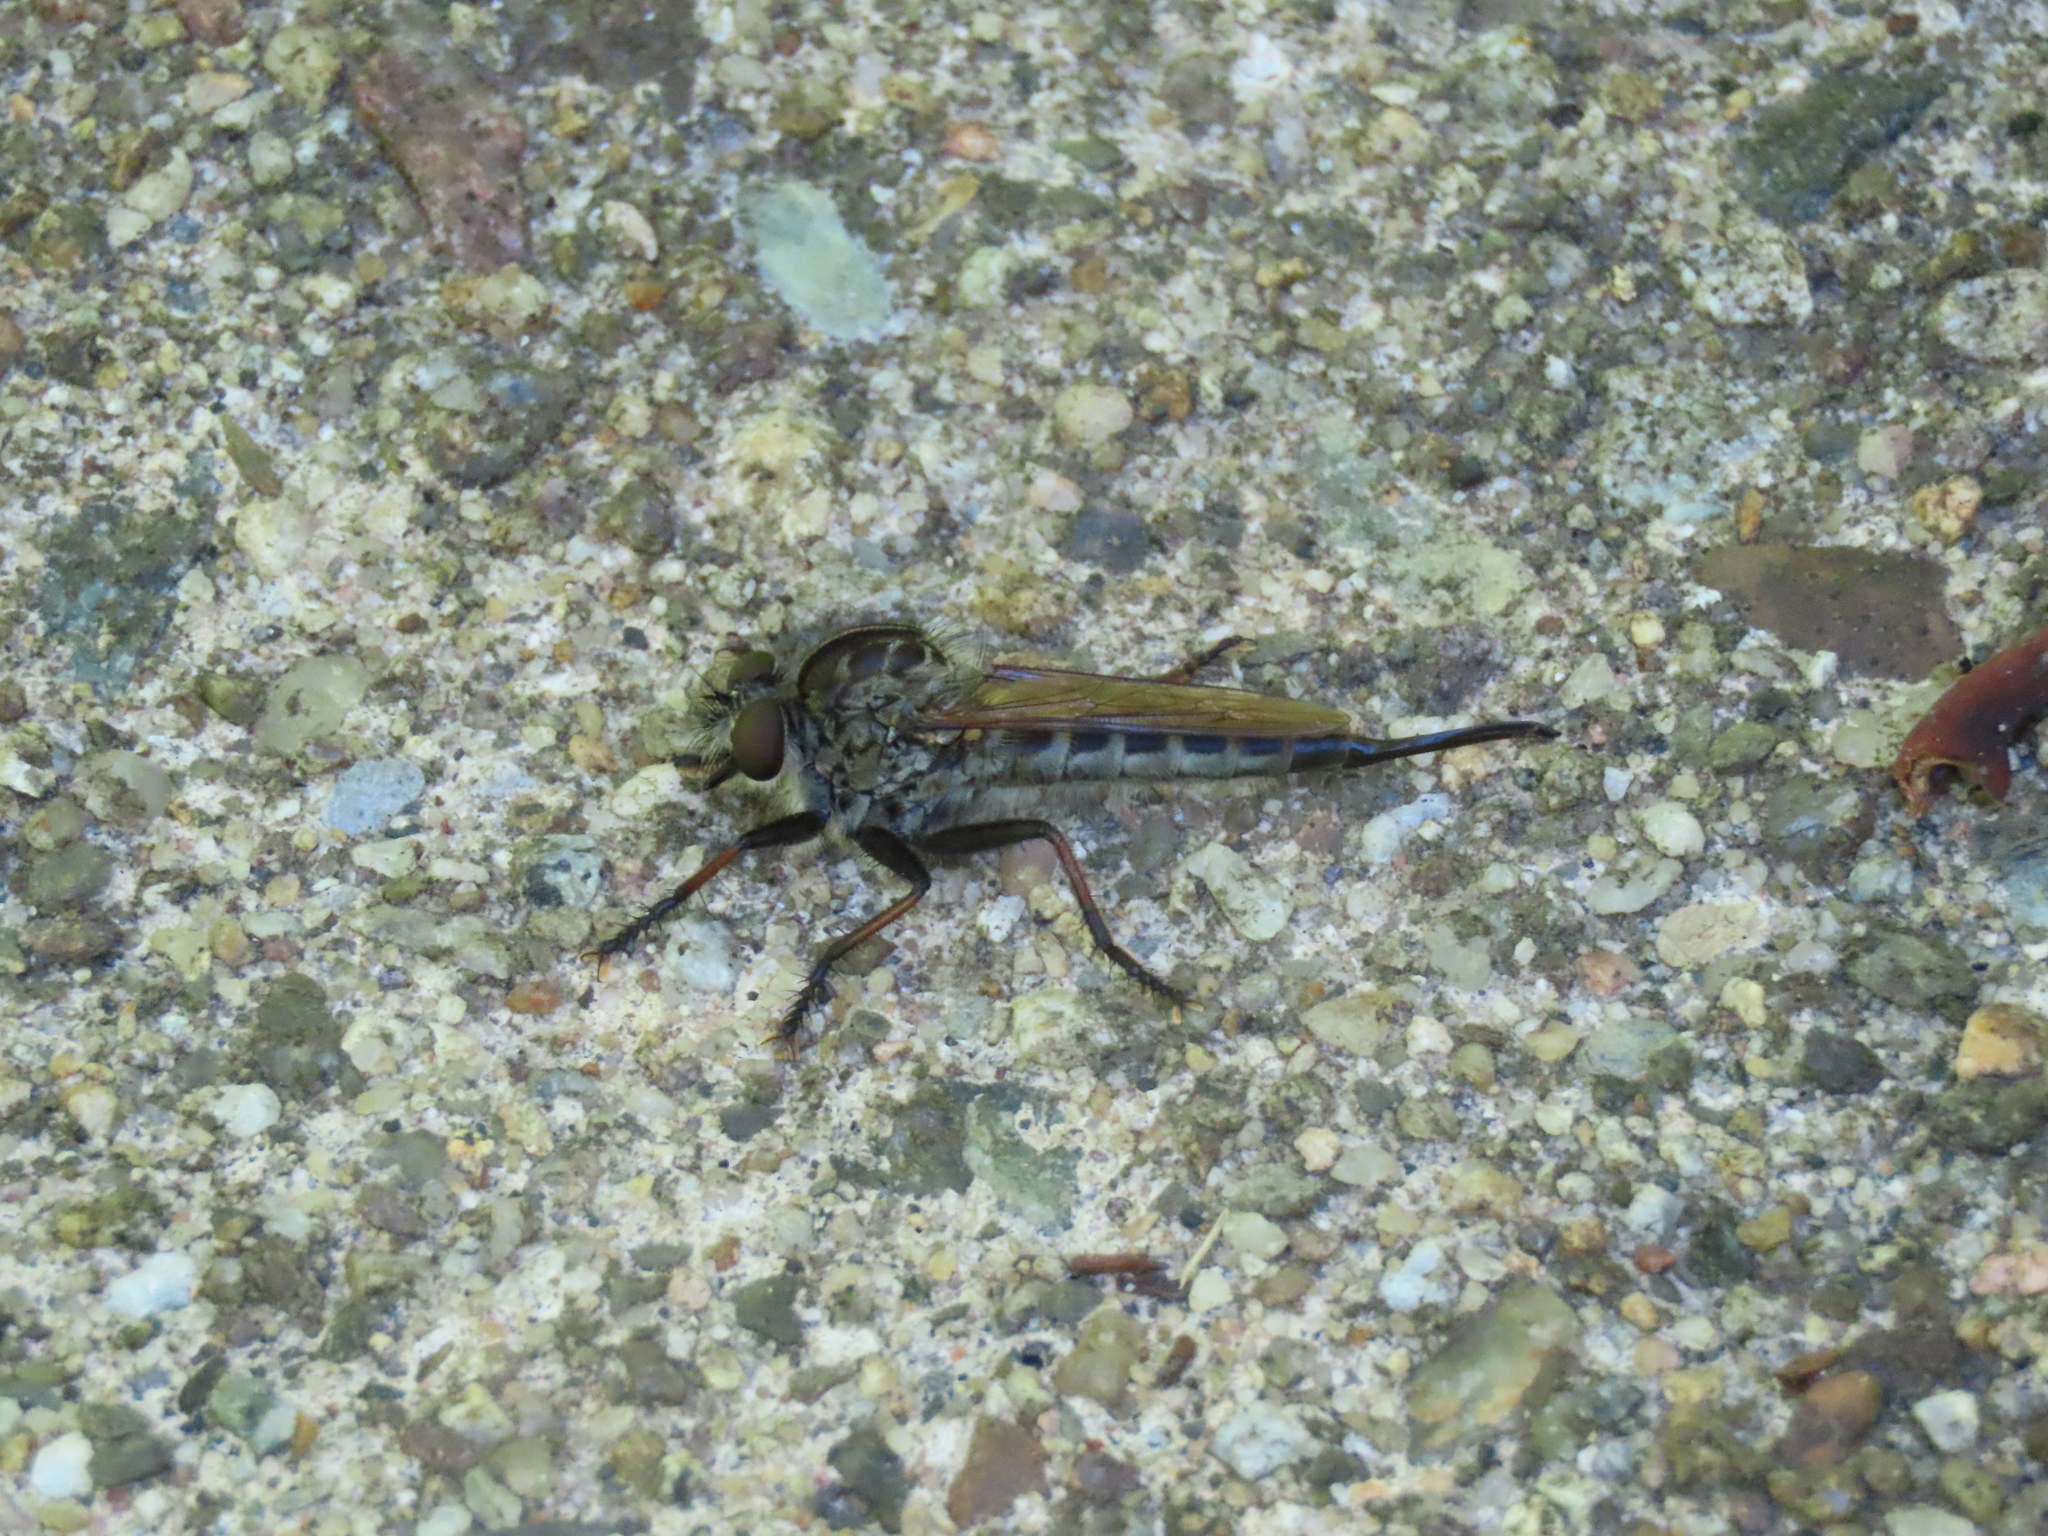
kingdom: Animalia
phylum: Arthropoda
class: Insecta
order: Diptera
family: Asilidae
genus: Efferia
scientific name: Efferia aestuans
